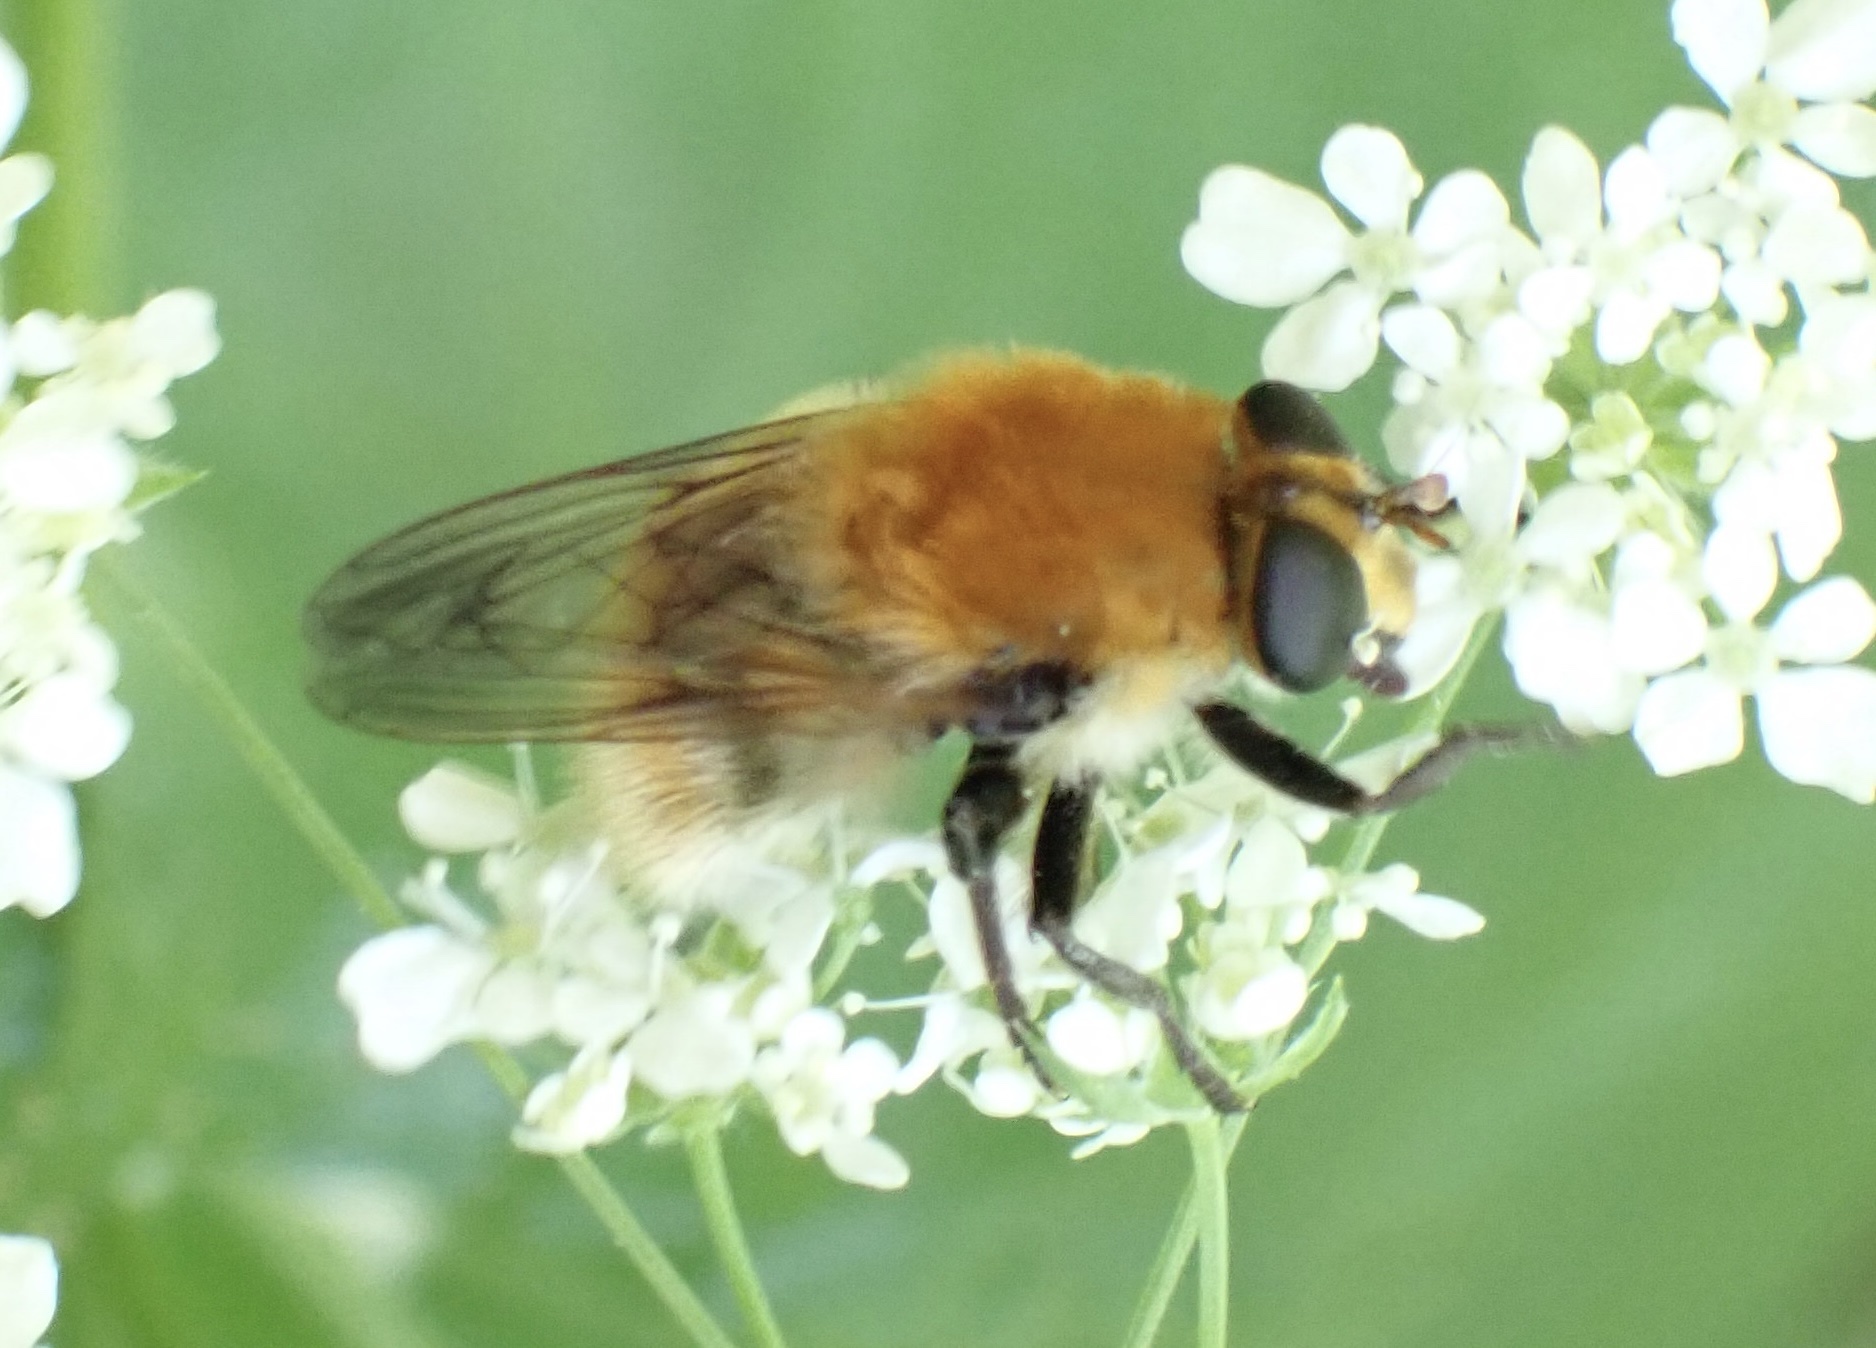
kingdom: Animalia
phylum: Arthropoda
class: Insecta
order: Diptera
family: Syrphidae
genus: Criorhina
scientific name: Criorhina berberina
